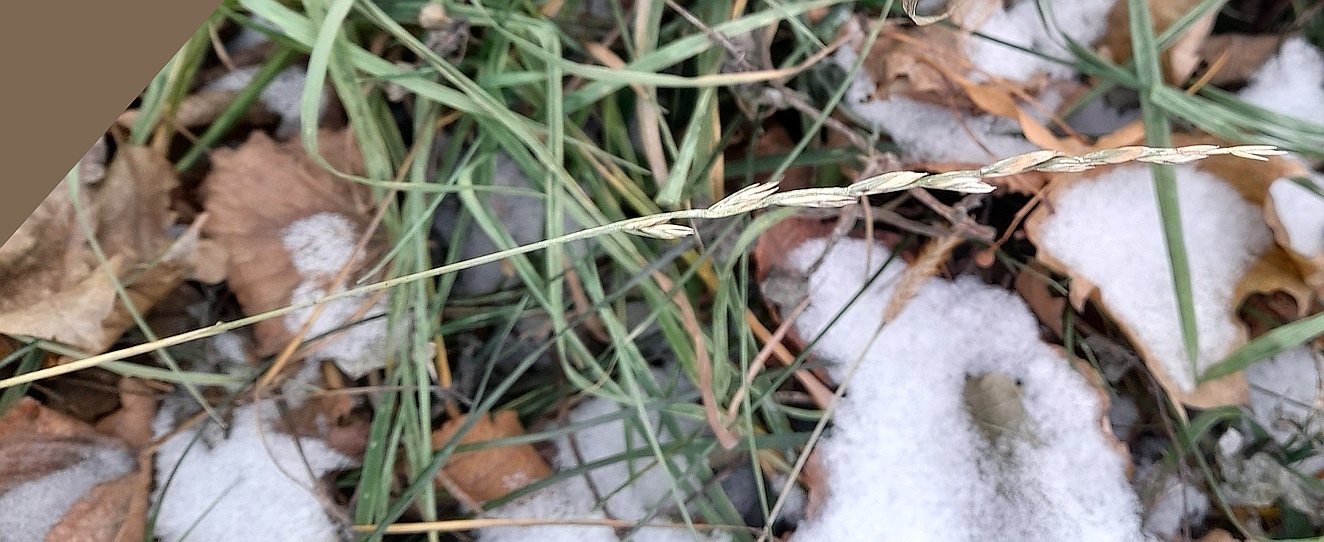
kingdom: Plantae
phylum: Tracheophyta
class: Liliopsida
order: Poales
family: Poaceae
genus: Lolium
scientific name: Lolium perenne
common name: Perennial ryegrass
